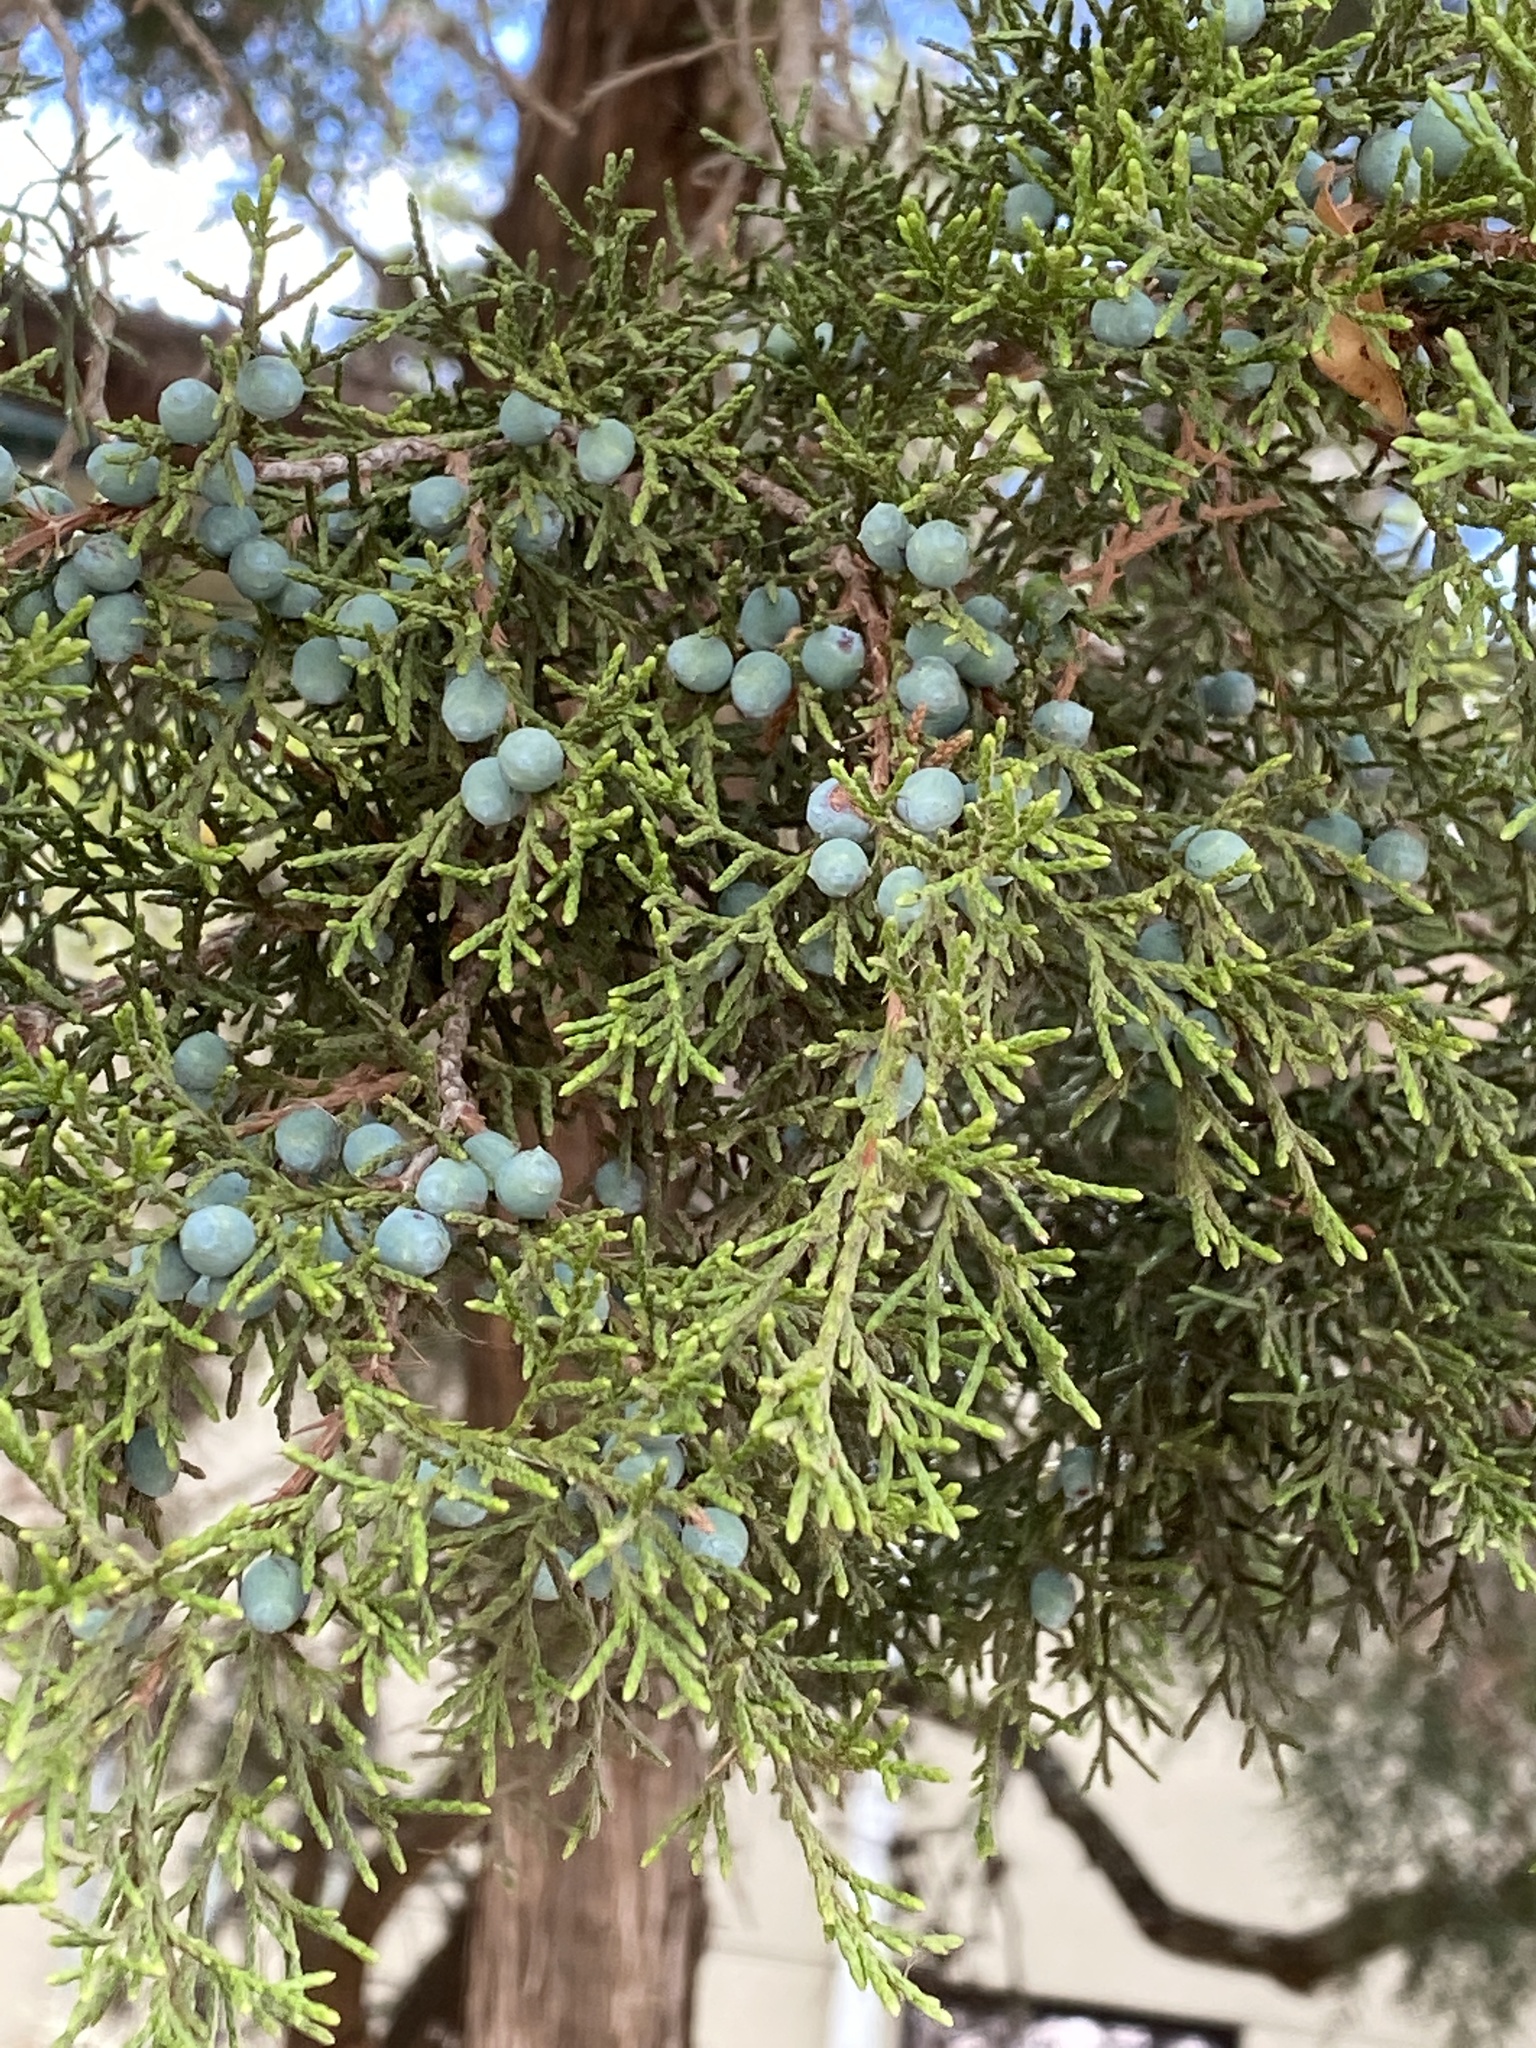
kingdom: Plantae
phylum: Tracheophyta
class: Pinopsida
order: Pinales
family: Cupressaceae
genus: Juniperus
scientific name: Juniperus ashei
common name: Mexican juniper
